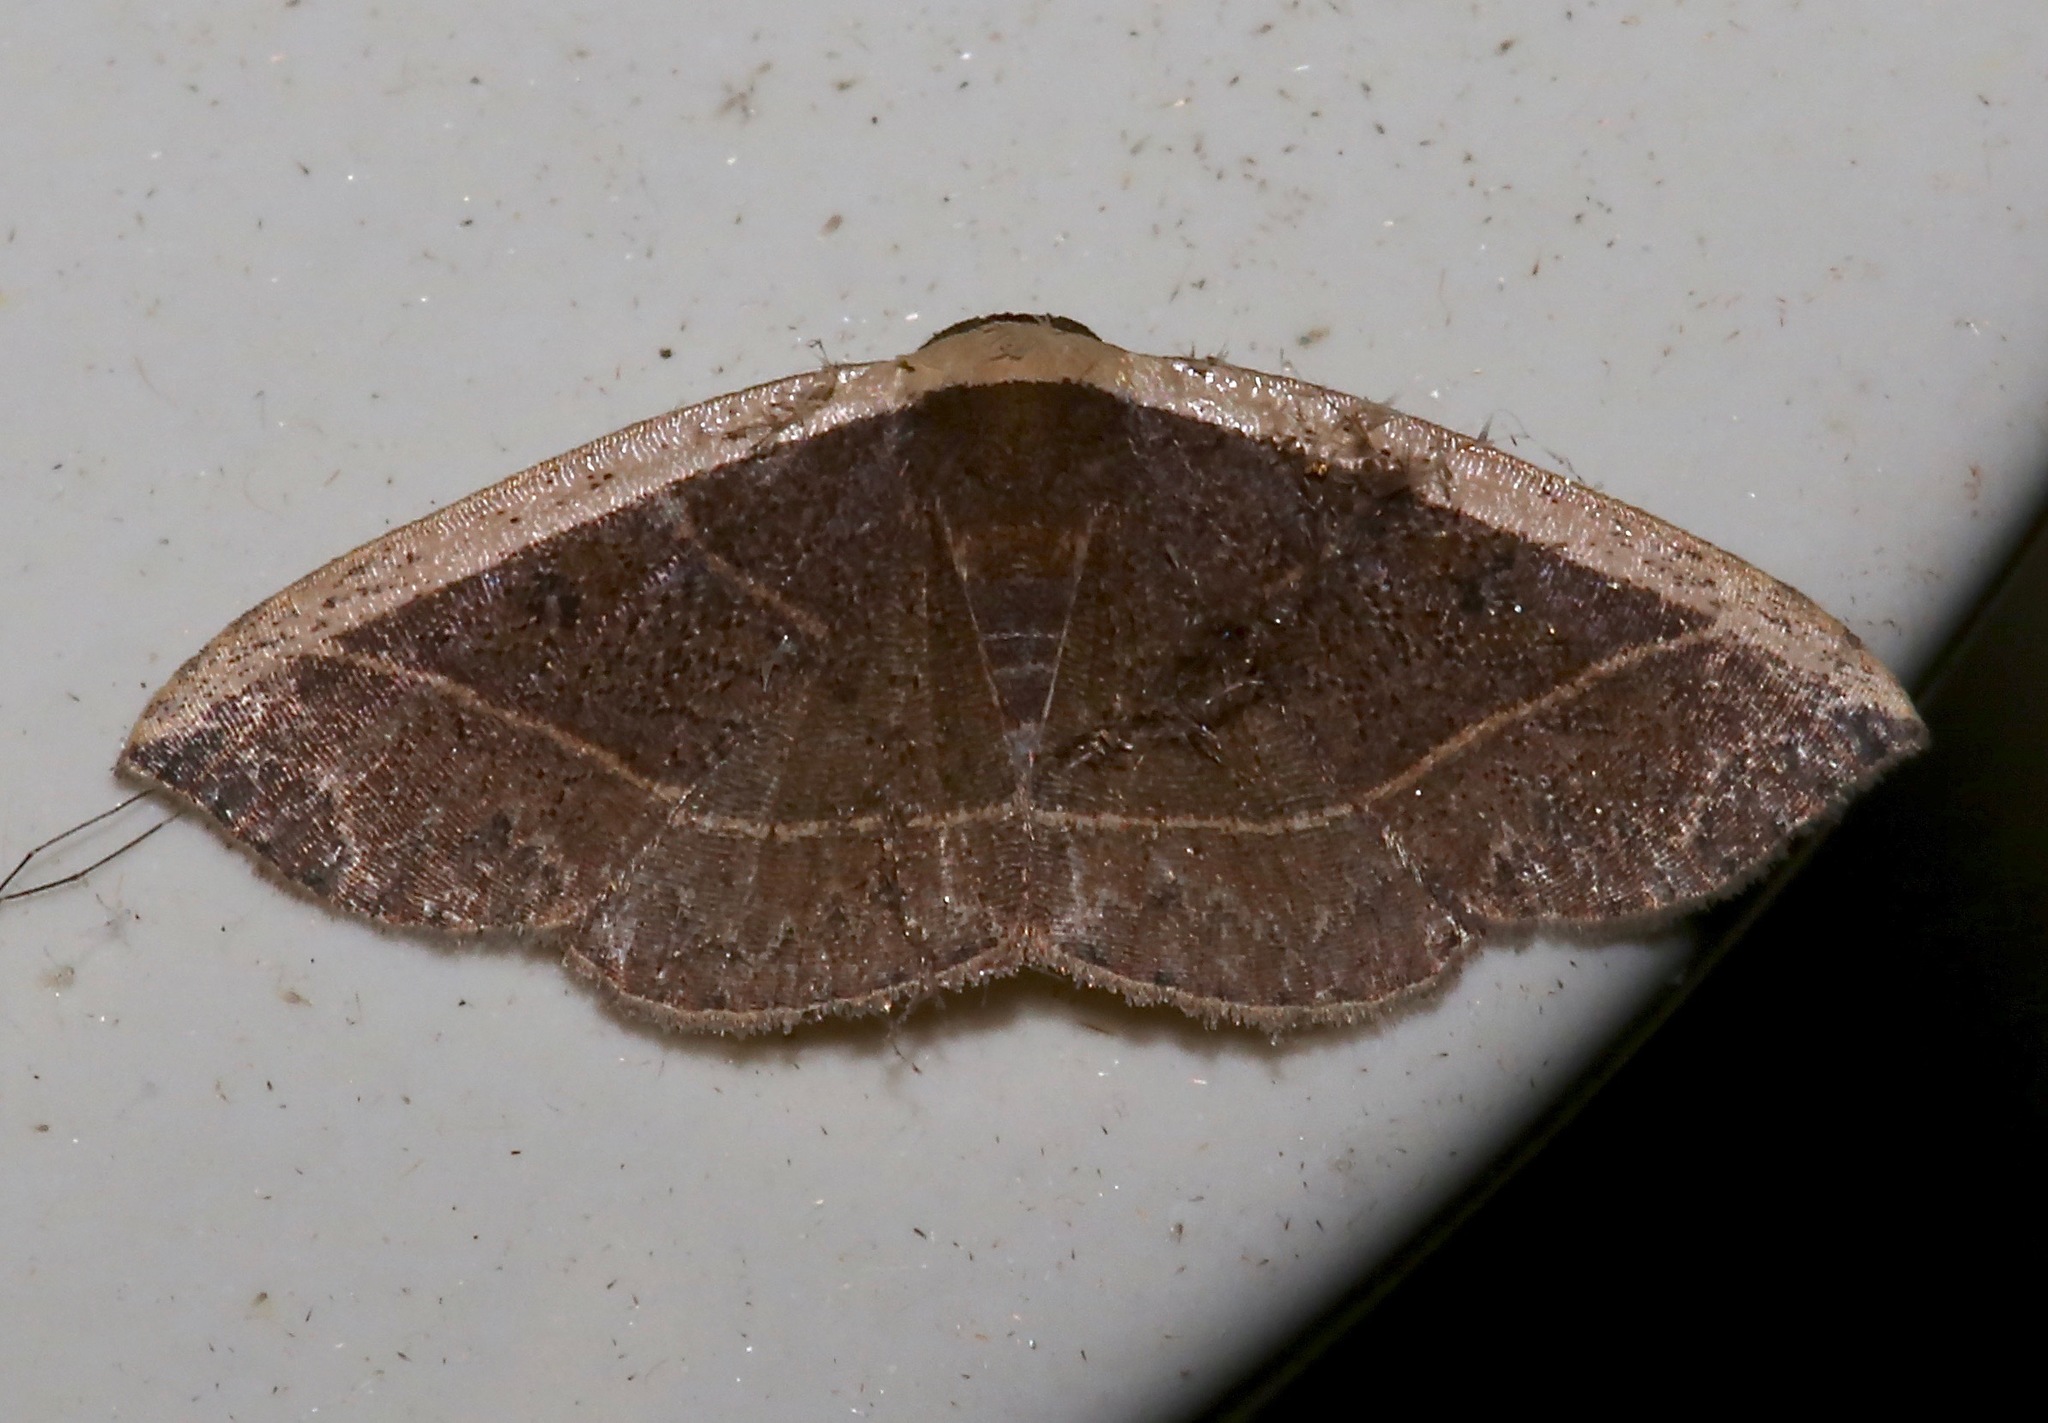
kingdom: Animalia
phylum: Arthropoda
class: Insecta
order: Lepidoptera
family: Noctuidae
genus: Ozarba
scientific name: Ozarba albocostaliata
